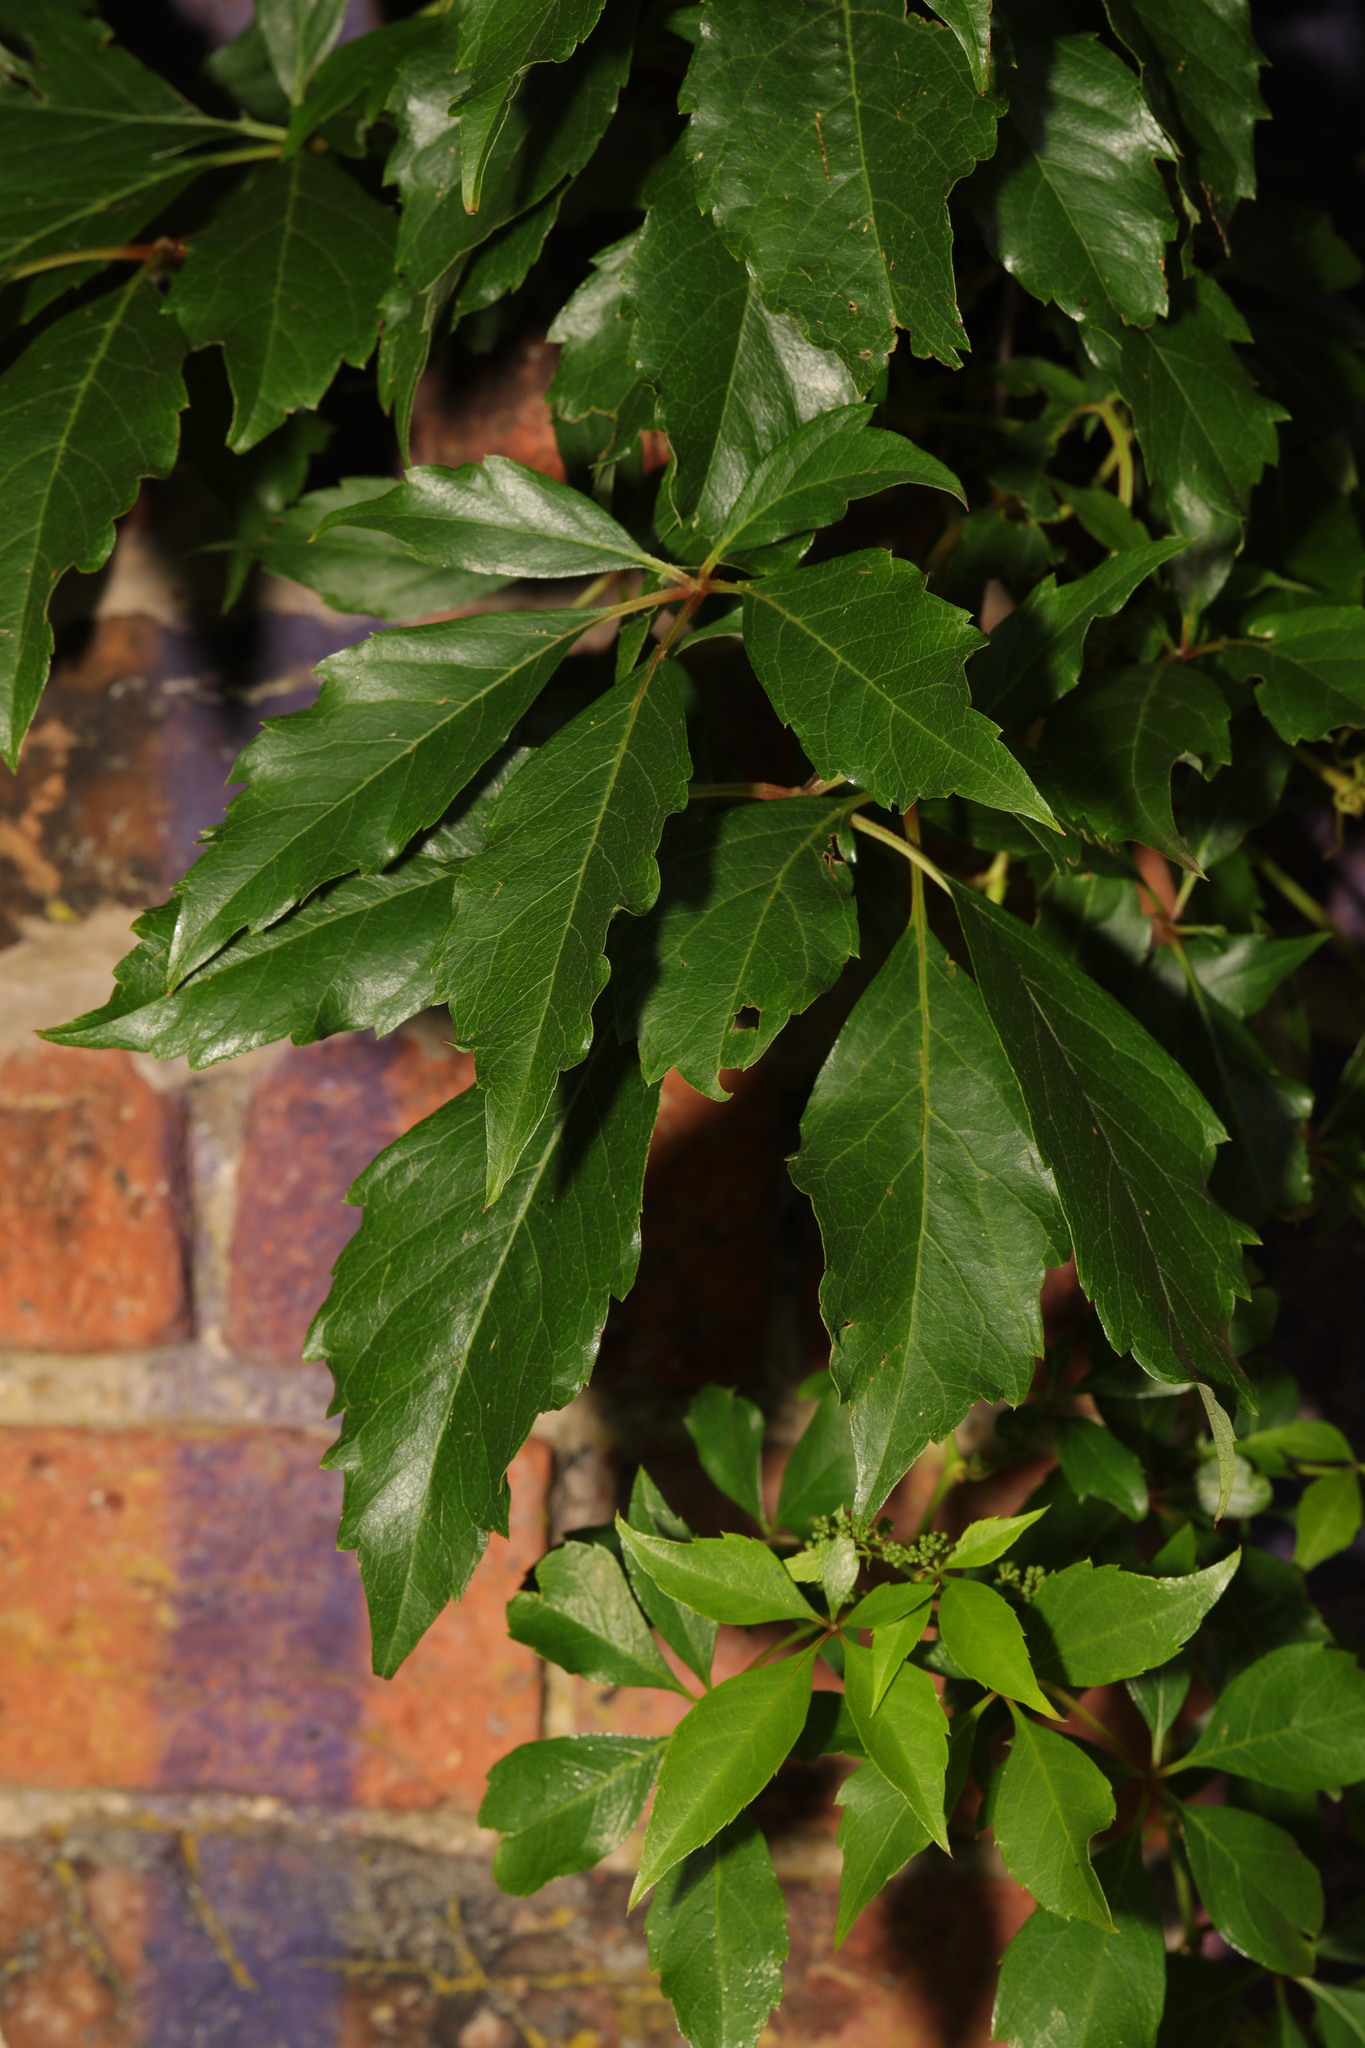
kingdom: Plantae
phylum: Tracheophyta
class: Magnoliopsida
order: Vitales
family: Vitaceae
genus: Parthenocissus
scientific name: Parthenocissus quinquefolia
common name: Virginia-creeper
